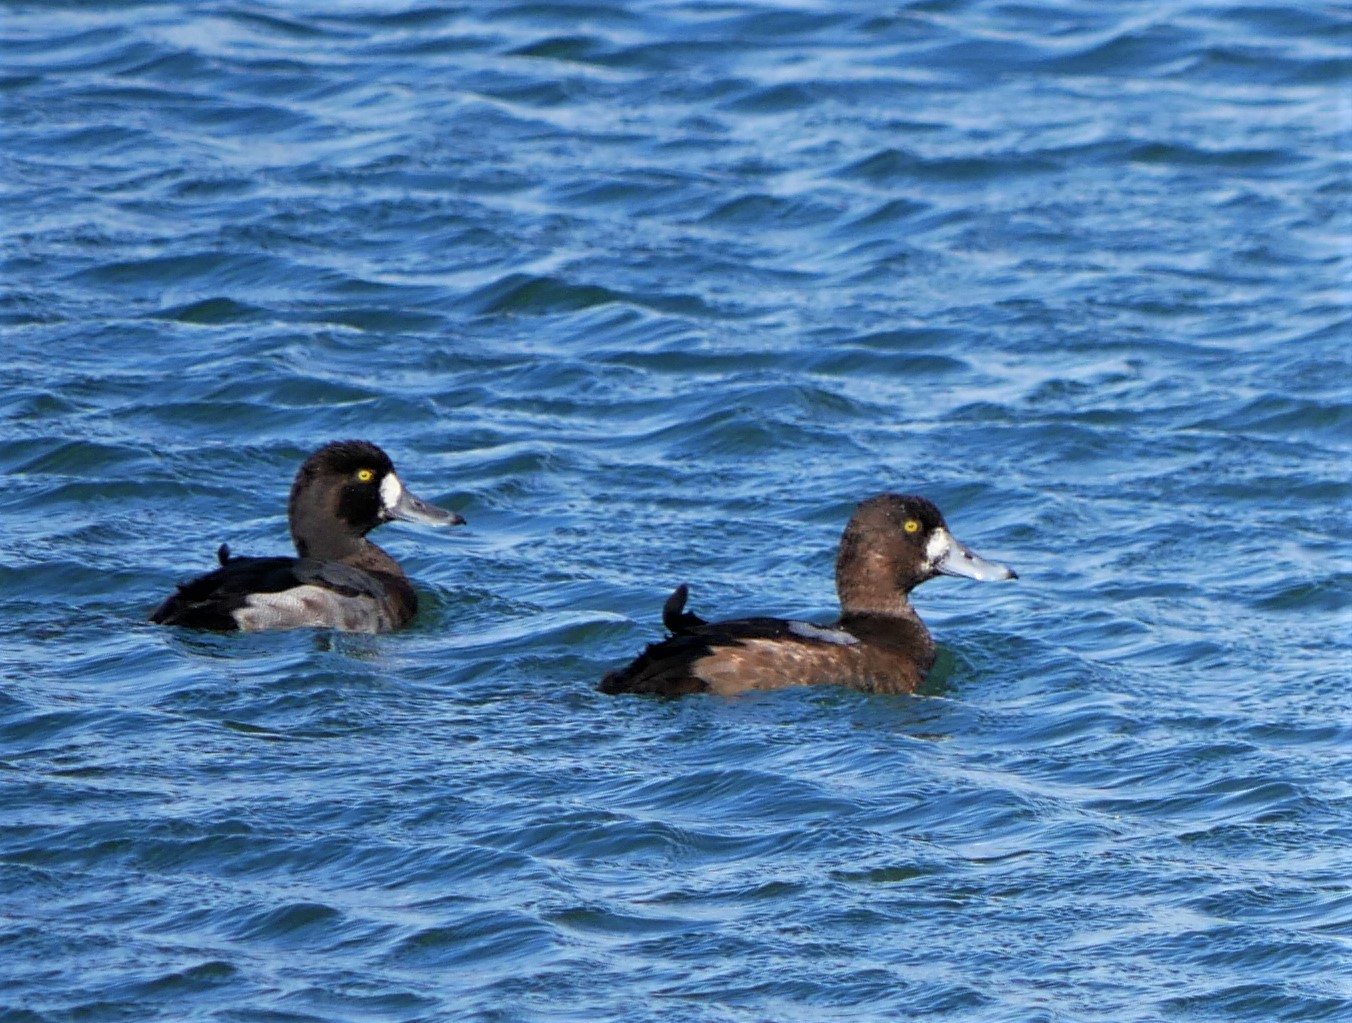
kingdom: Animalia
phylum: Chordata
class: Aves
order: Anseriformes
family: Anatidae
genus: Aythya
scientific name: Aythya marila
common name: Greater scaup
